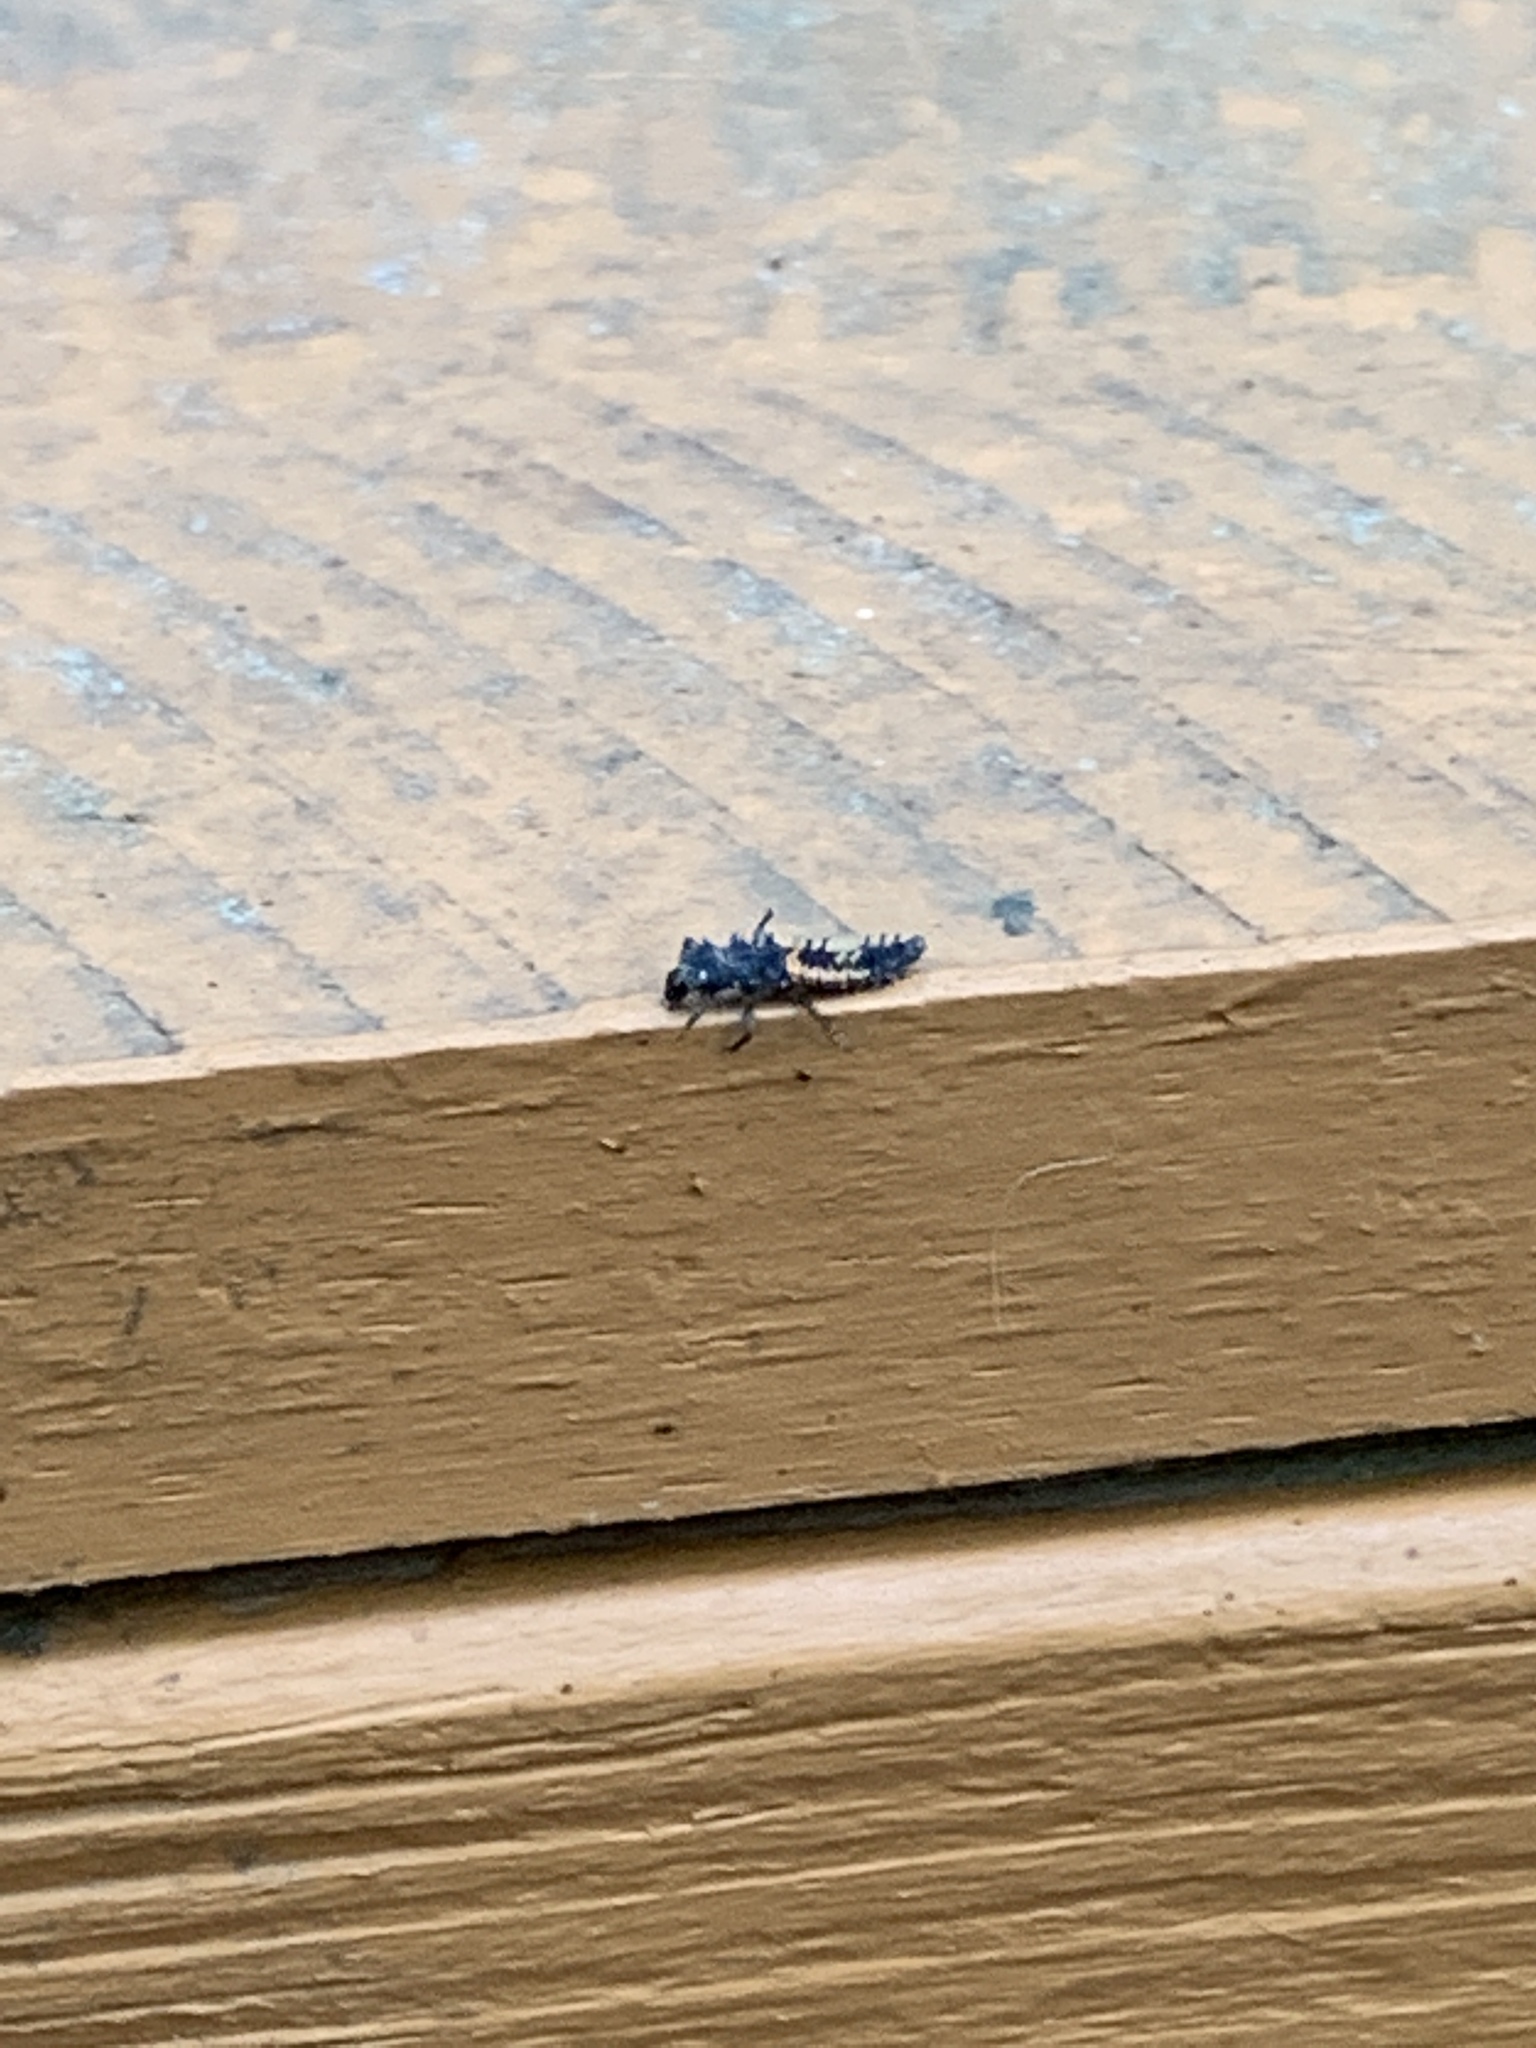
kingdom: Animalia
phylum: Arthropoda
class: Insecta
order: Coleoptera
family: Coccinellidae
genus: Harmonia
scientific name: Harmonia axyridis
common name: Harlequin ladybird
